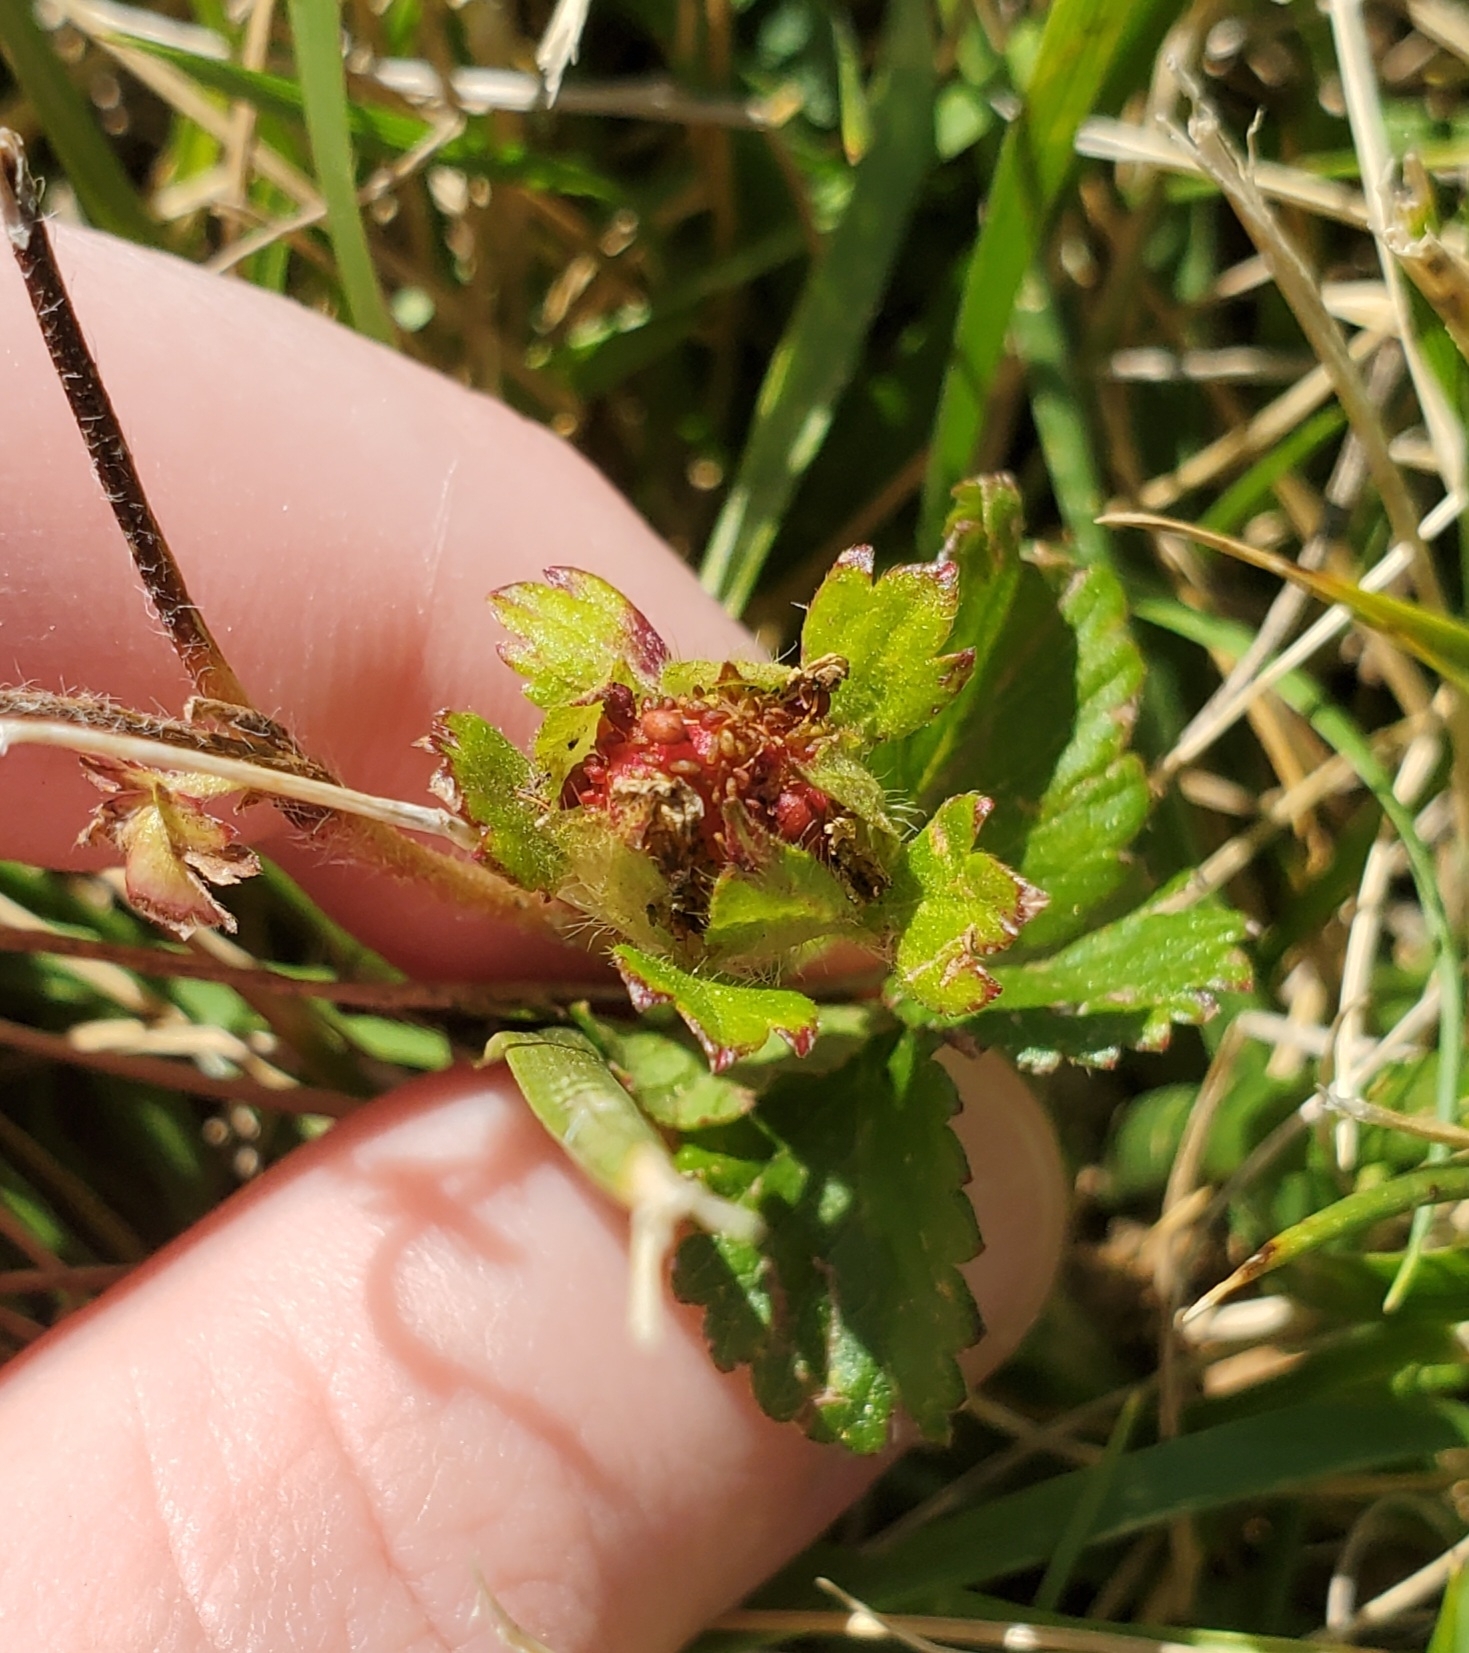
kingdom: Plantae
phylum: Tracheophyta
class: Magnoliopsida
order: Rosales
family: Rosaceae
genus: Potentilla
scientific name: Potentilla indica
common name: Yellow-flowered strawberry
